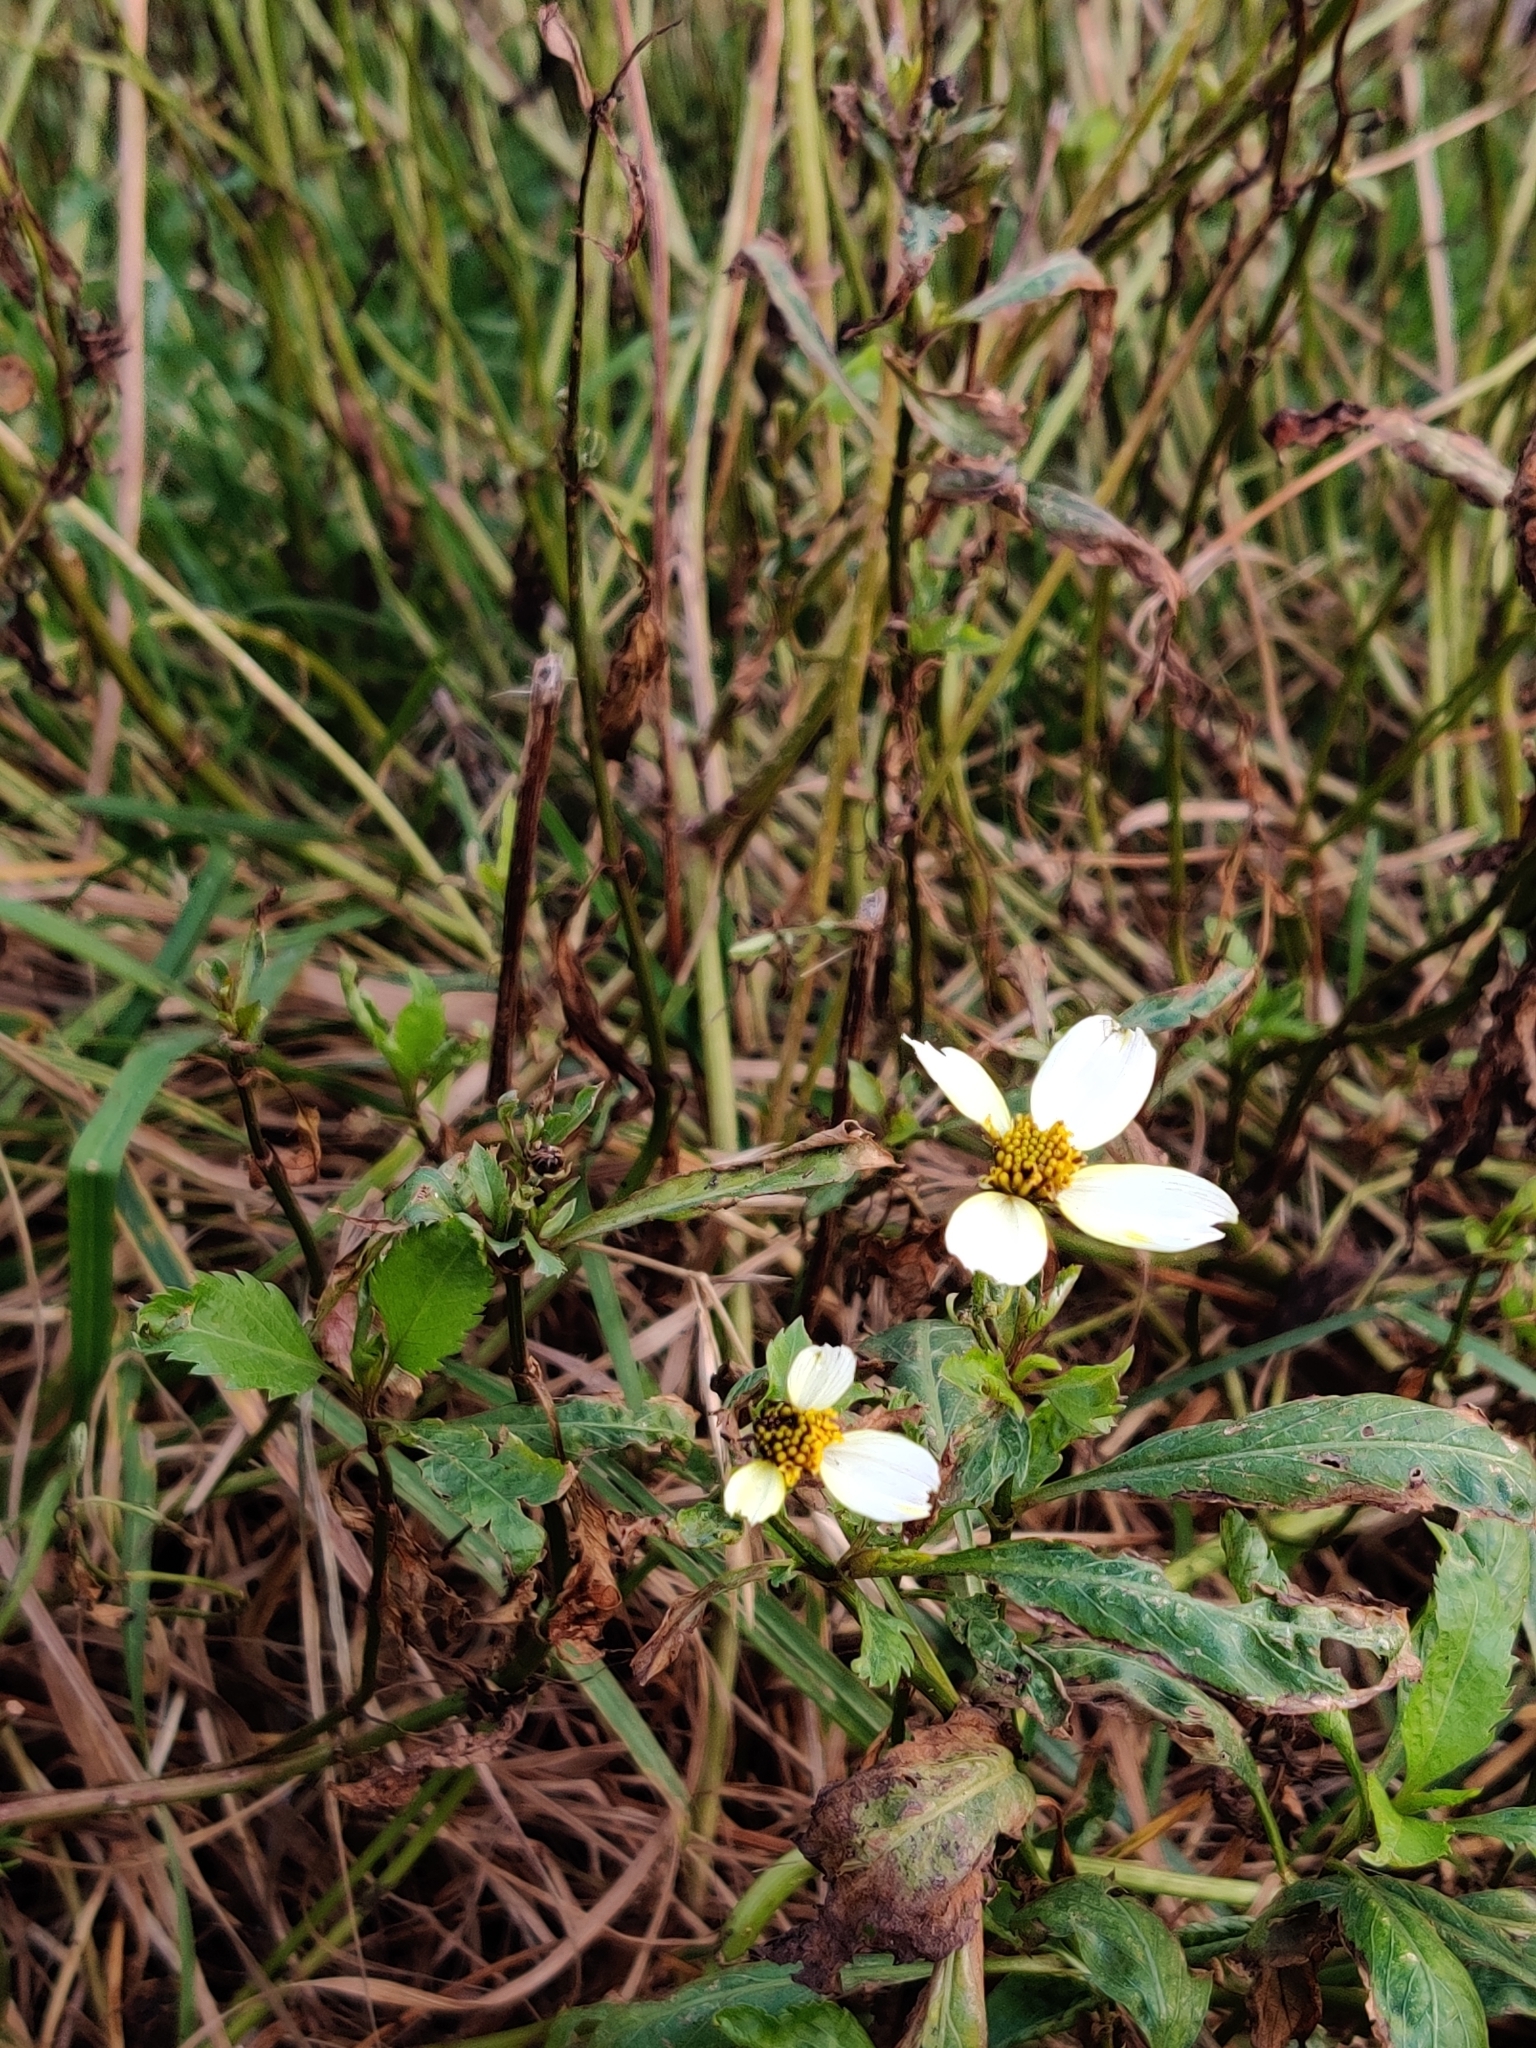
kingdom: Plantae
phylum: Tracheophyta
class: Magnoliopsida
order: Asterales
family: Asteraceae
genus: Bidens
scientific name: Bidens aurea
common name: Arizona beggar-ticks
